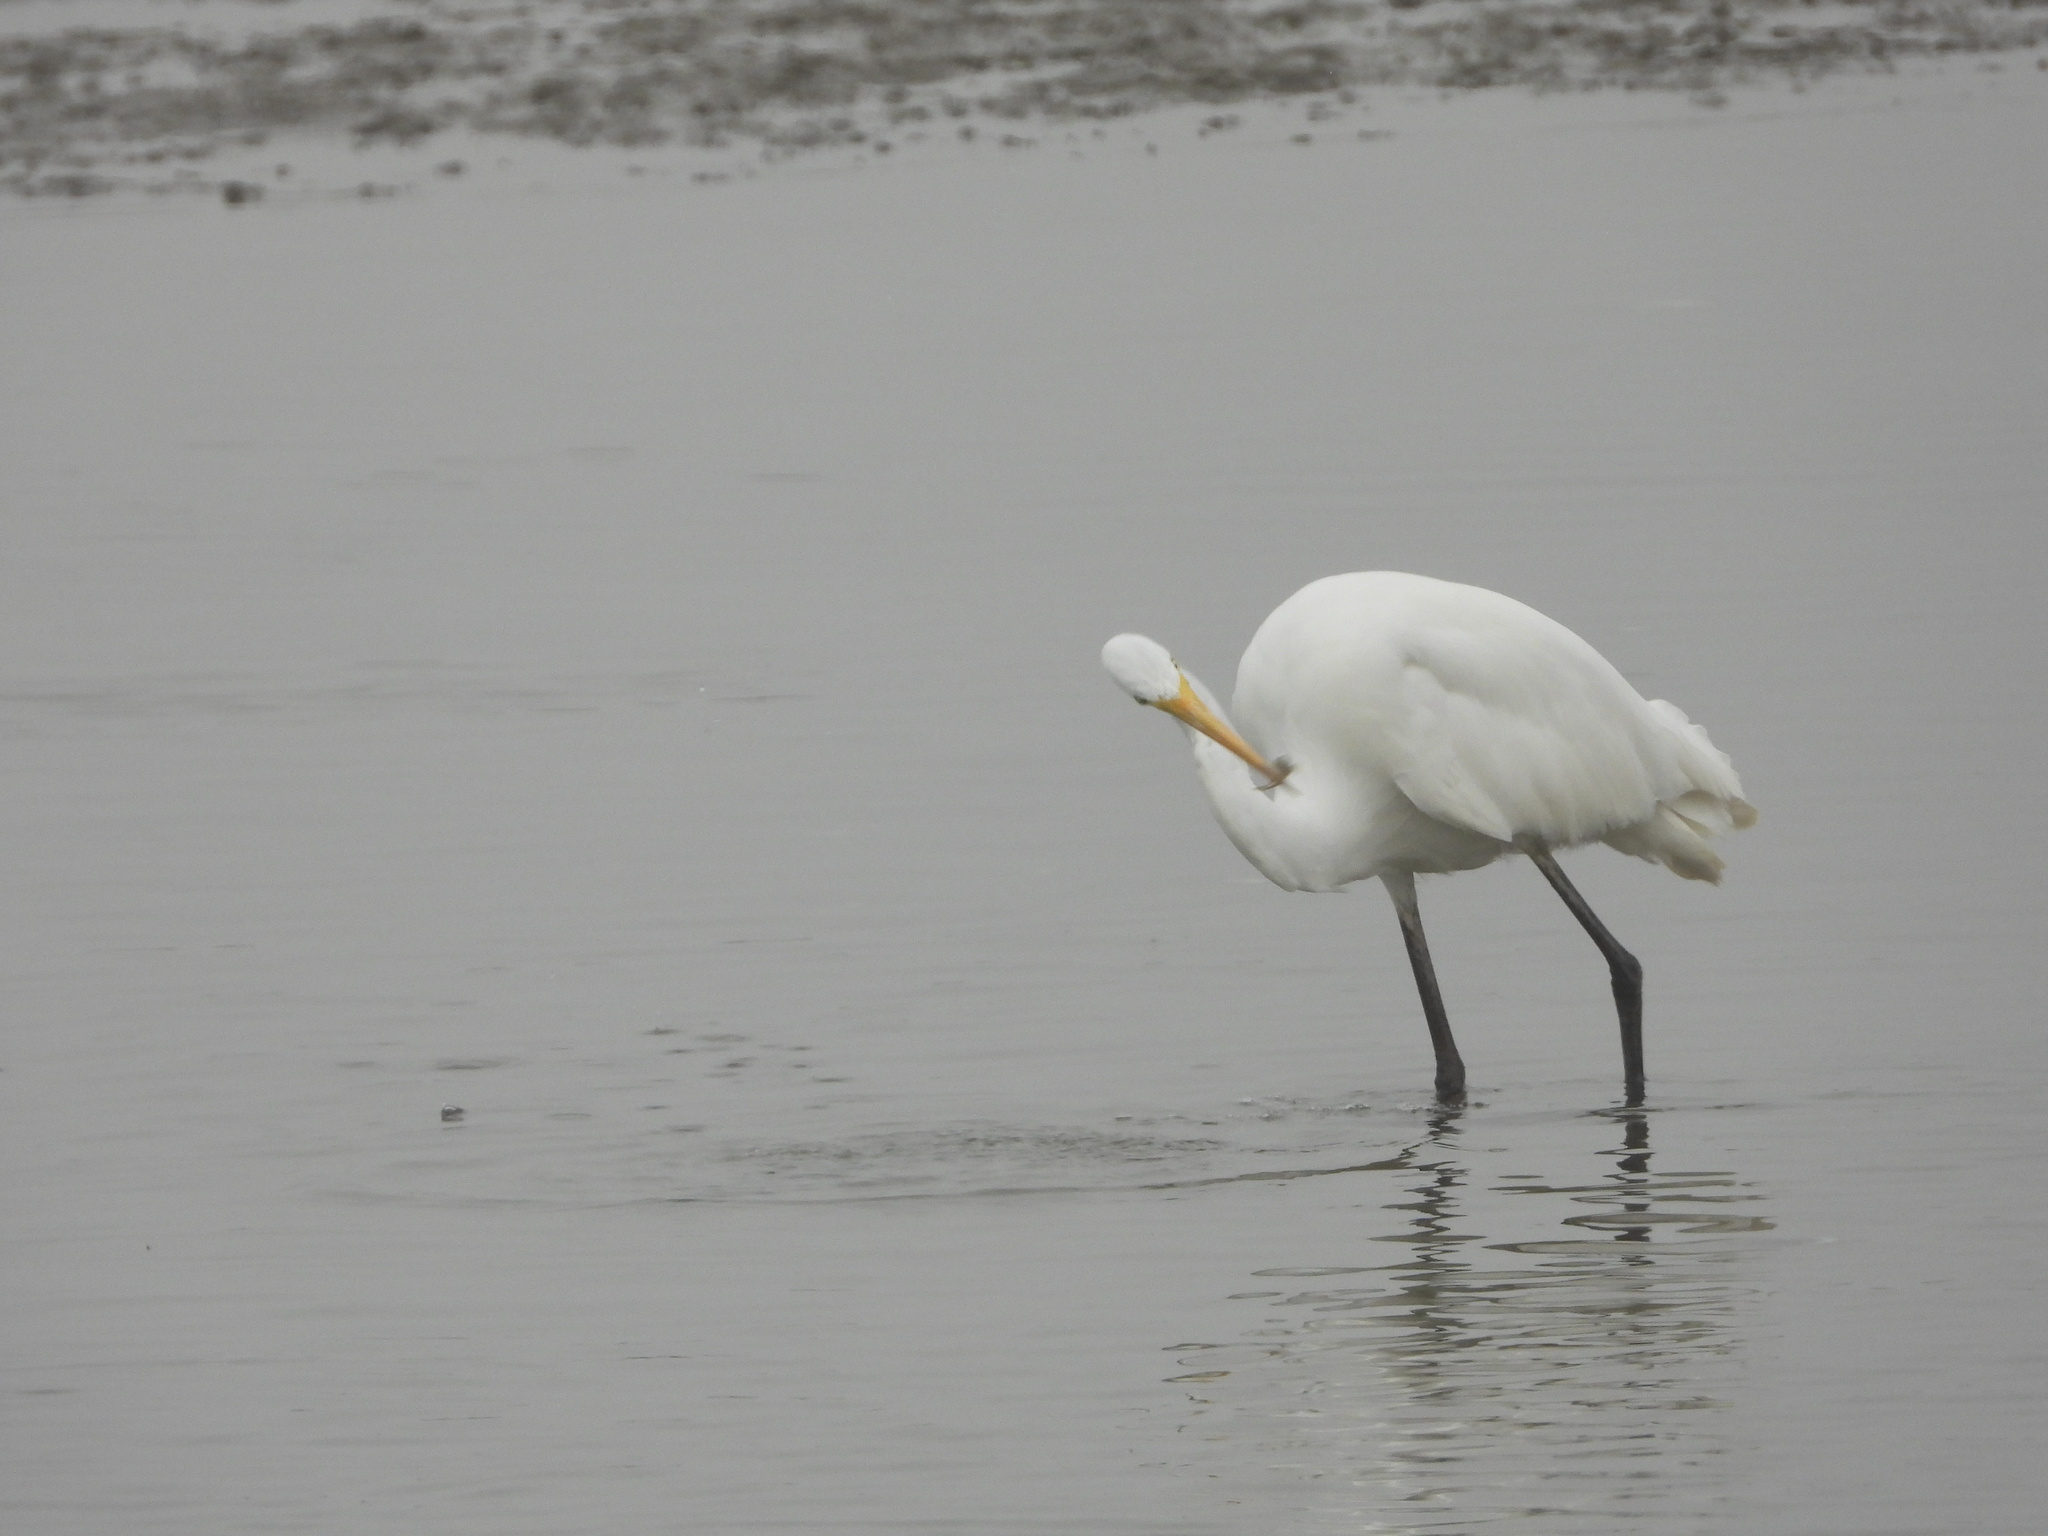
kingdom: Animalia
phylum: Chordata
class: Aves
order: Pelecaniformes
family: Ardeidae
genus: Ardea
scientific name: Ardea alba
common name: Great egret
